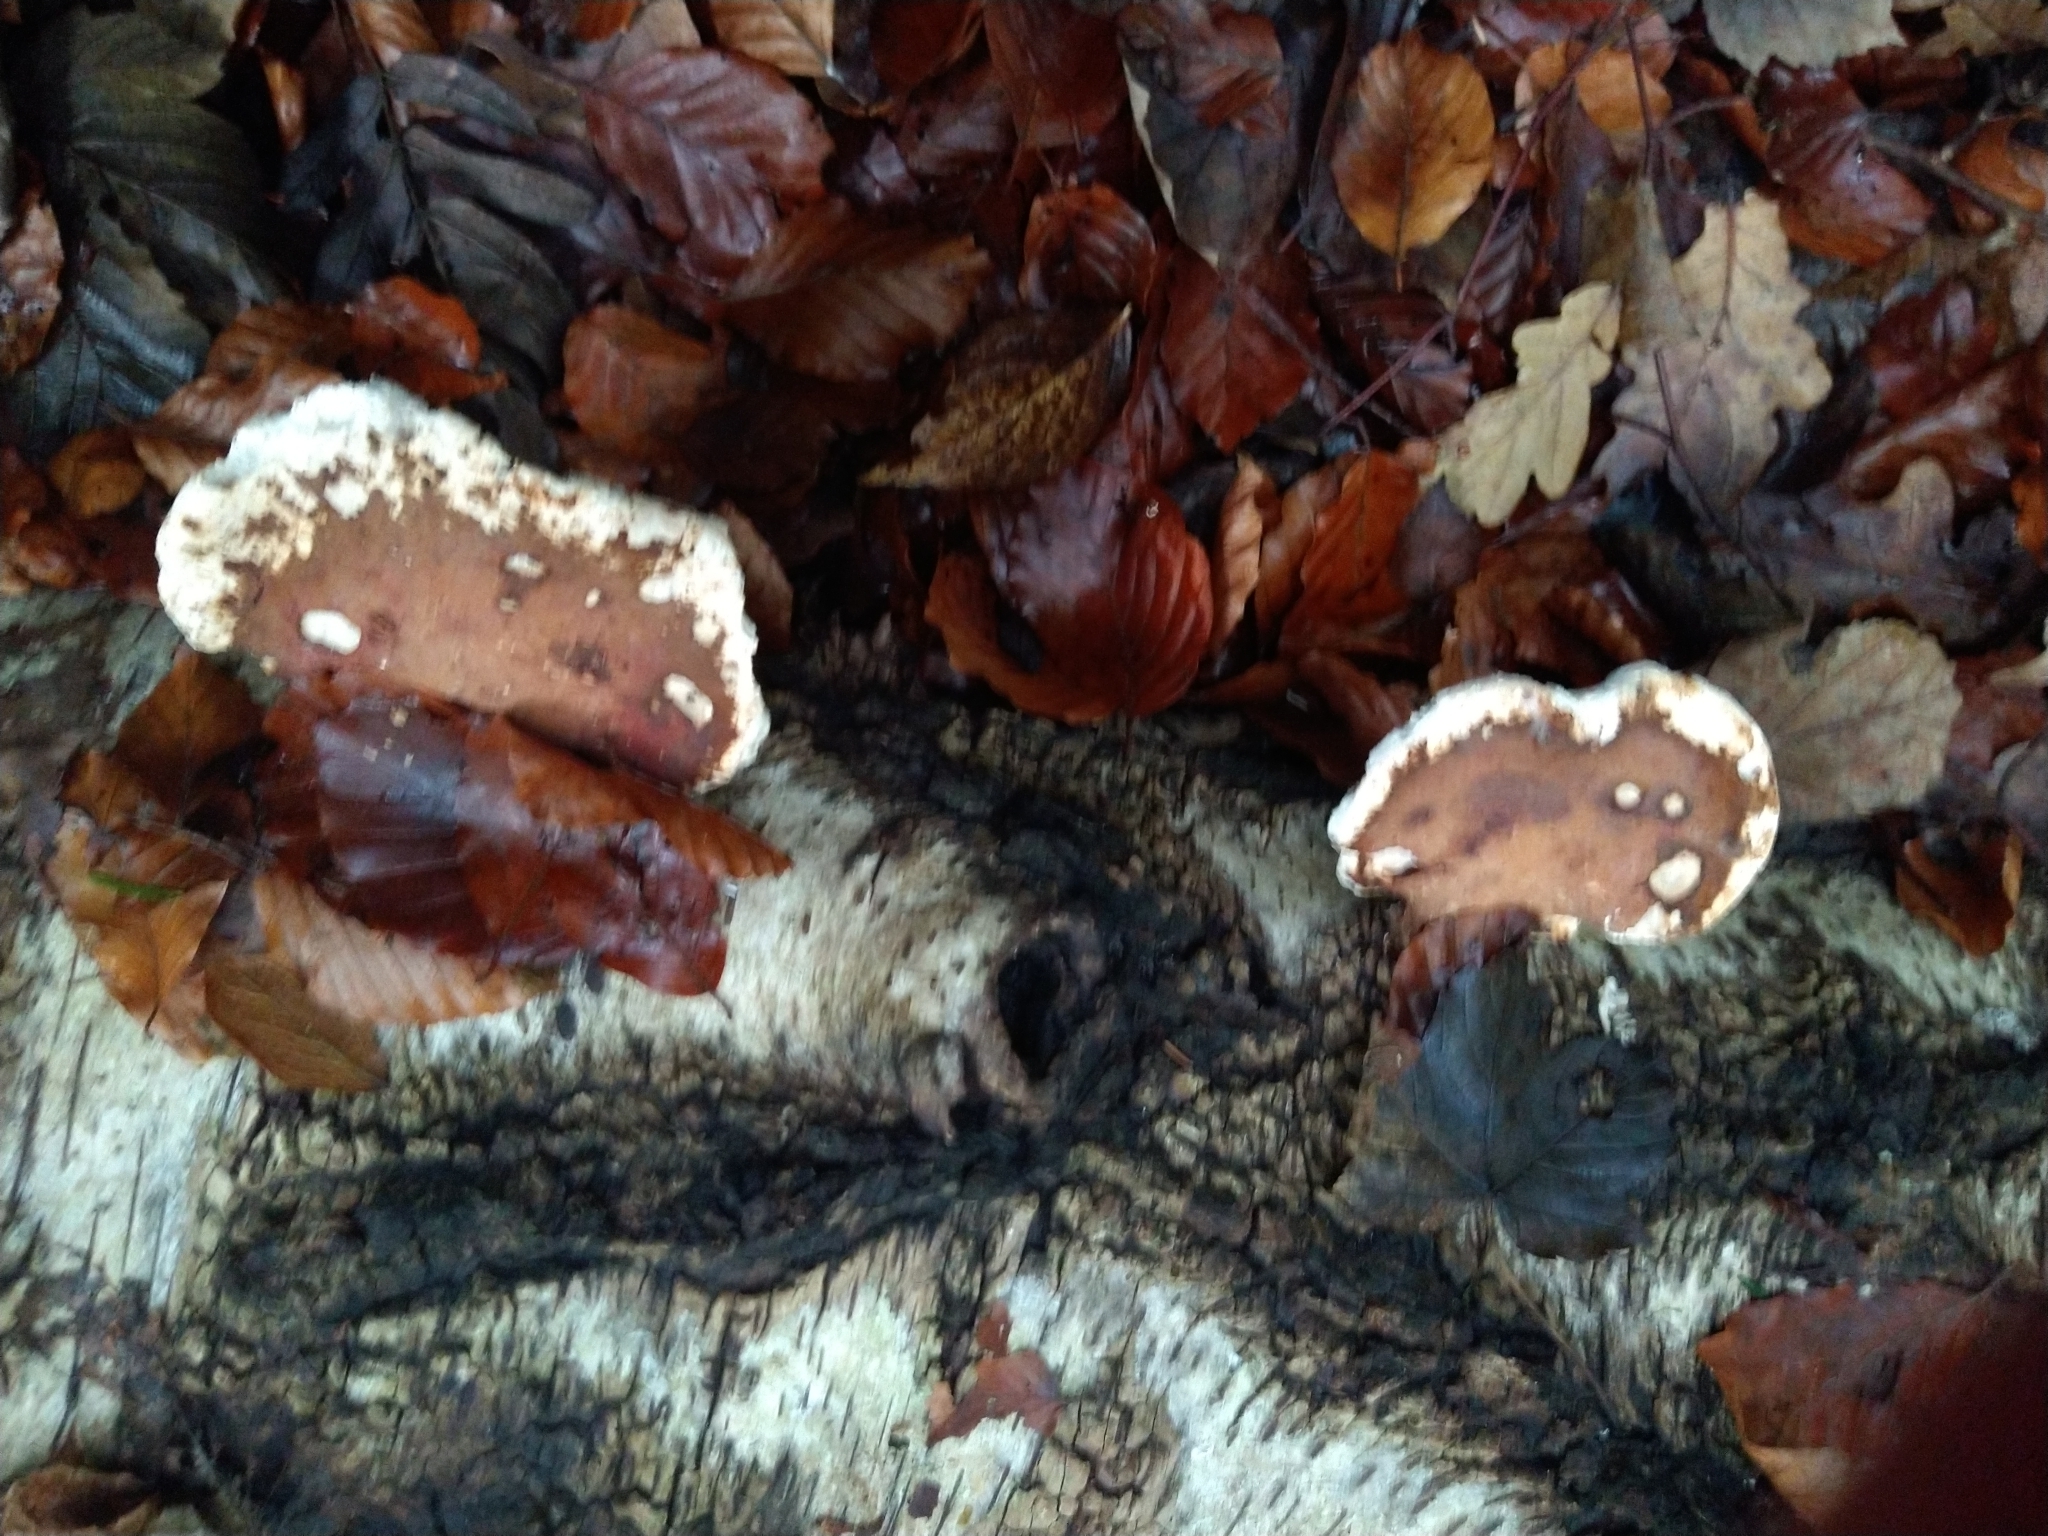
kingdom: Fungi
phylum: Basidiomycota
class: Agaricomycetes
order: Polyporales
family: Fomitopsidaceae
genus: Fomitopsis
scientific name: Fomitopsis betulina
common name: Birch polypore
